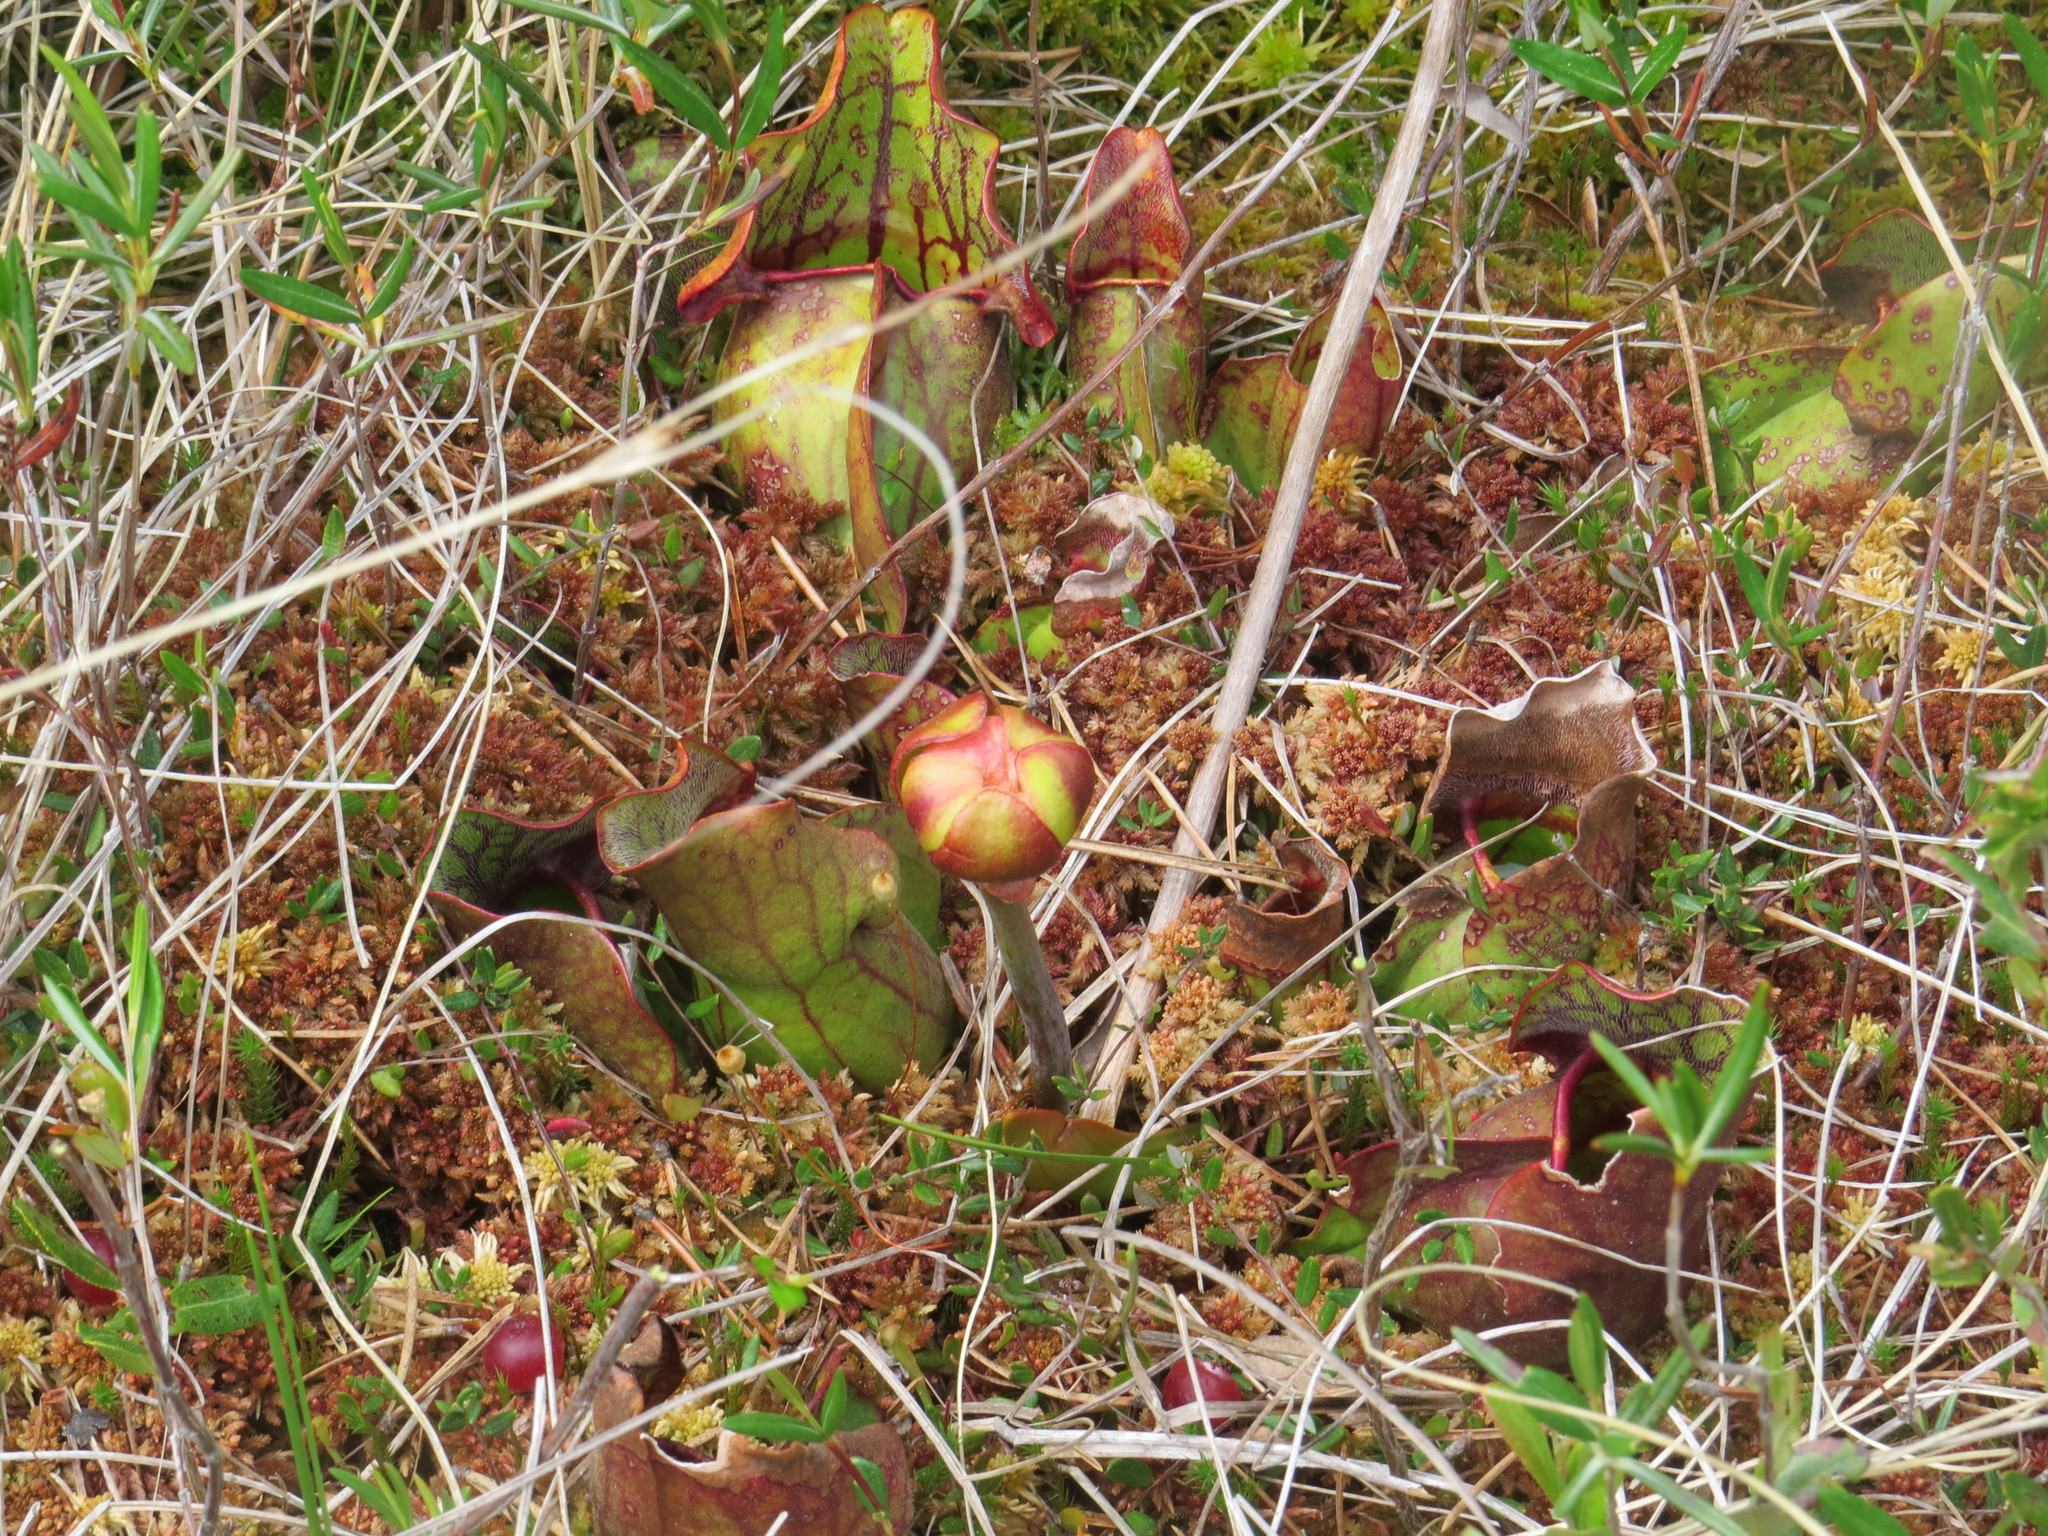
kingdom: Plantae
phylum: Tracheophyta
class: Magnoliopsida
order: Ericales
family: Sarraceniaceae
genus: Sarracenia
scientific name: Sarracenia purpurea
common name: Pitcherplant
